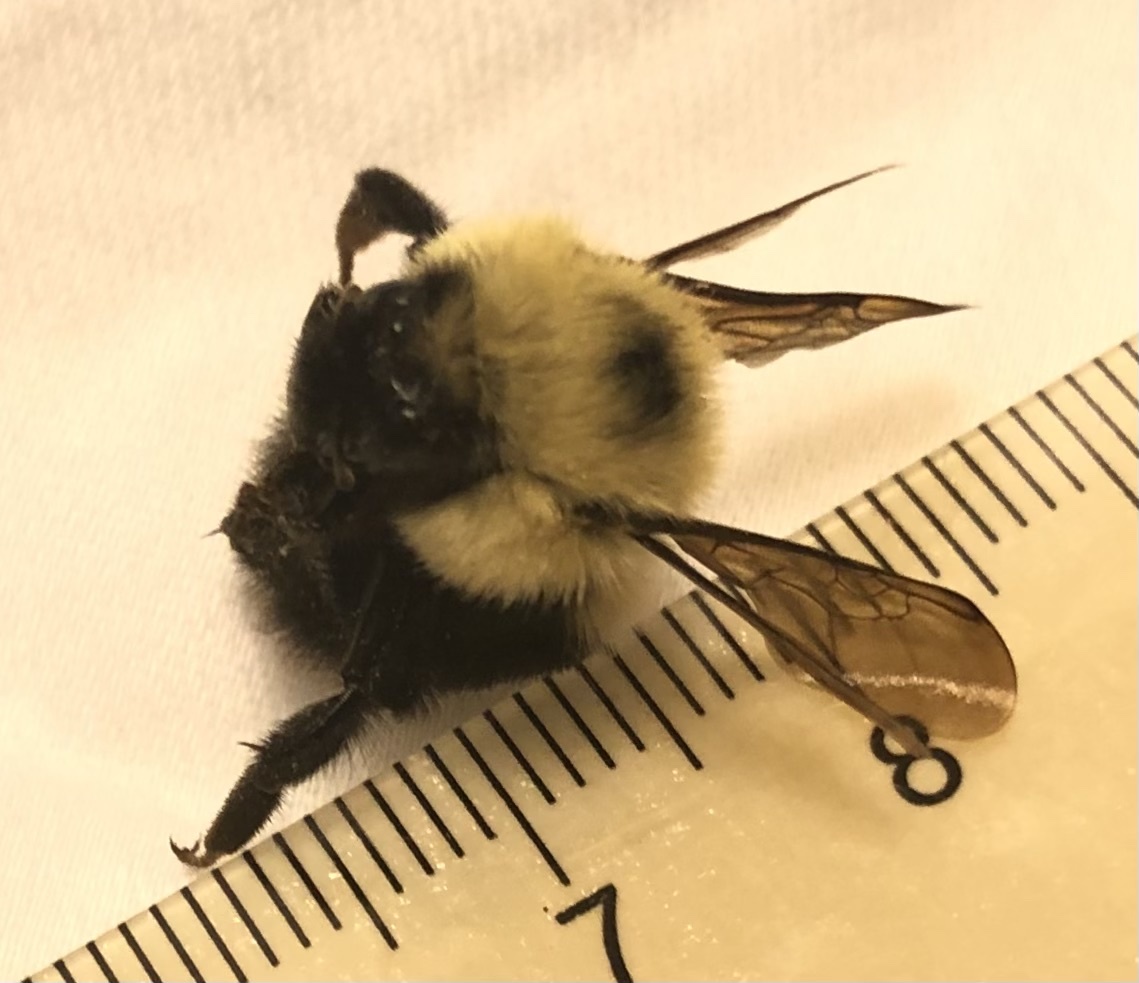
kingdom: Animalia
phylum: Arthropoda
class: Insecta
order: Hymenoptera
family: Apidae
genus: Bombus
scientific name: Bombus bimaculatus
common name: Two-spotted bumble bee
